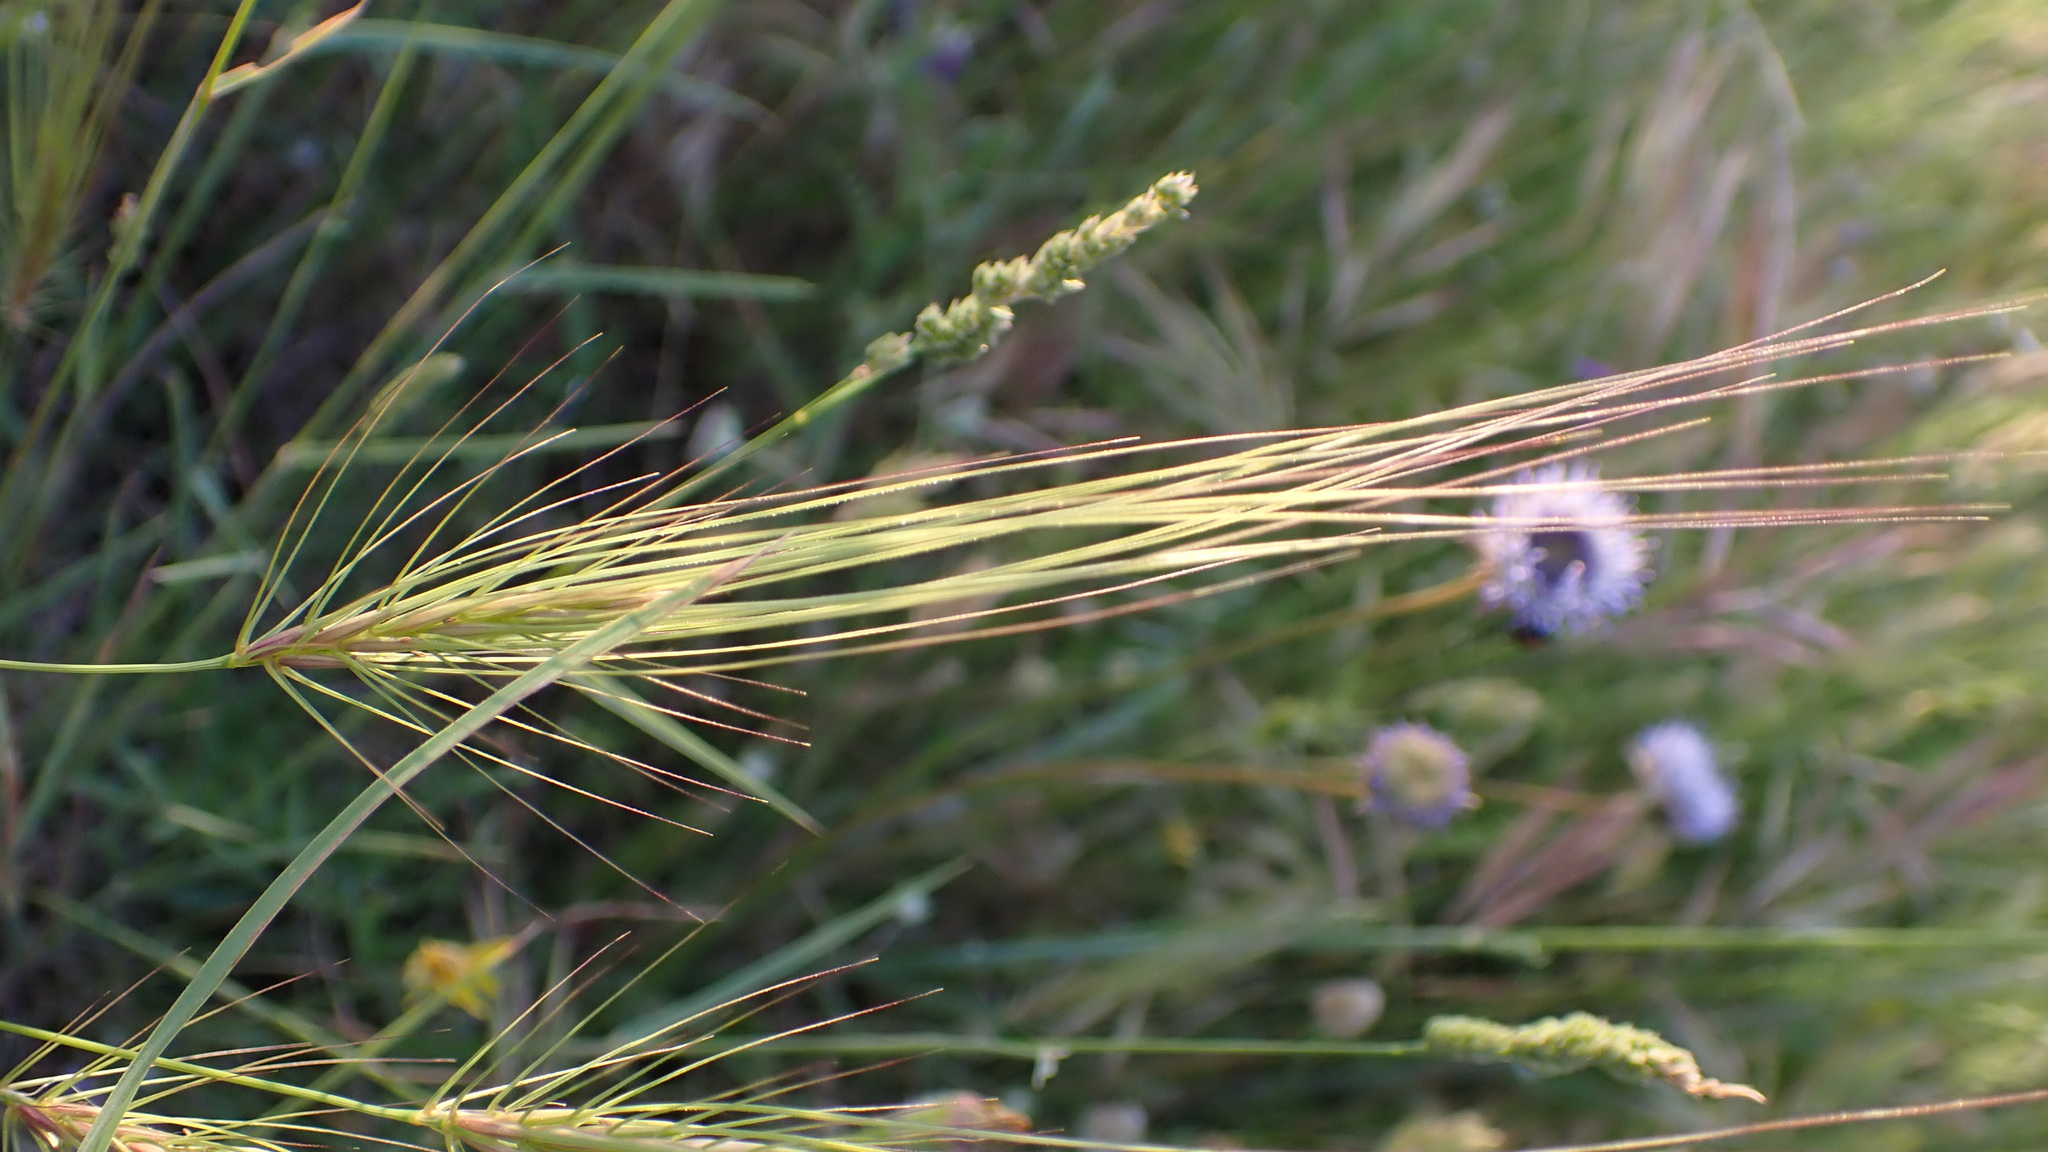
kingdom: Plantae
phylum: Tracheophyta
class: Liliopsida
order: Poales
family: Poaceae
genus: Taeniatherum
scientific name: Taeniatherum caput-medusae
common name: Medusahead
